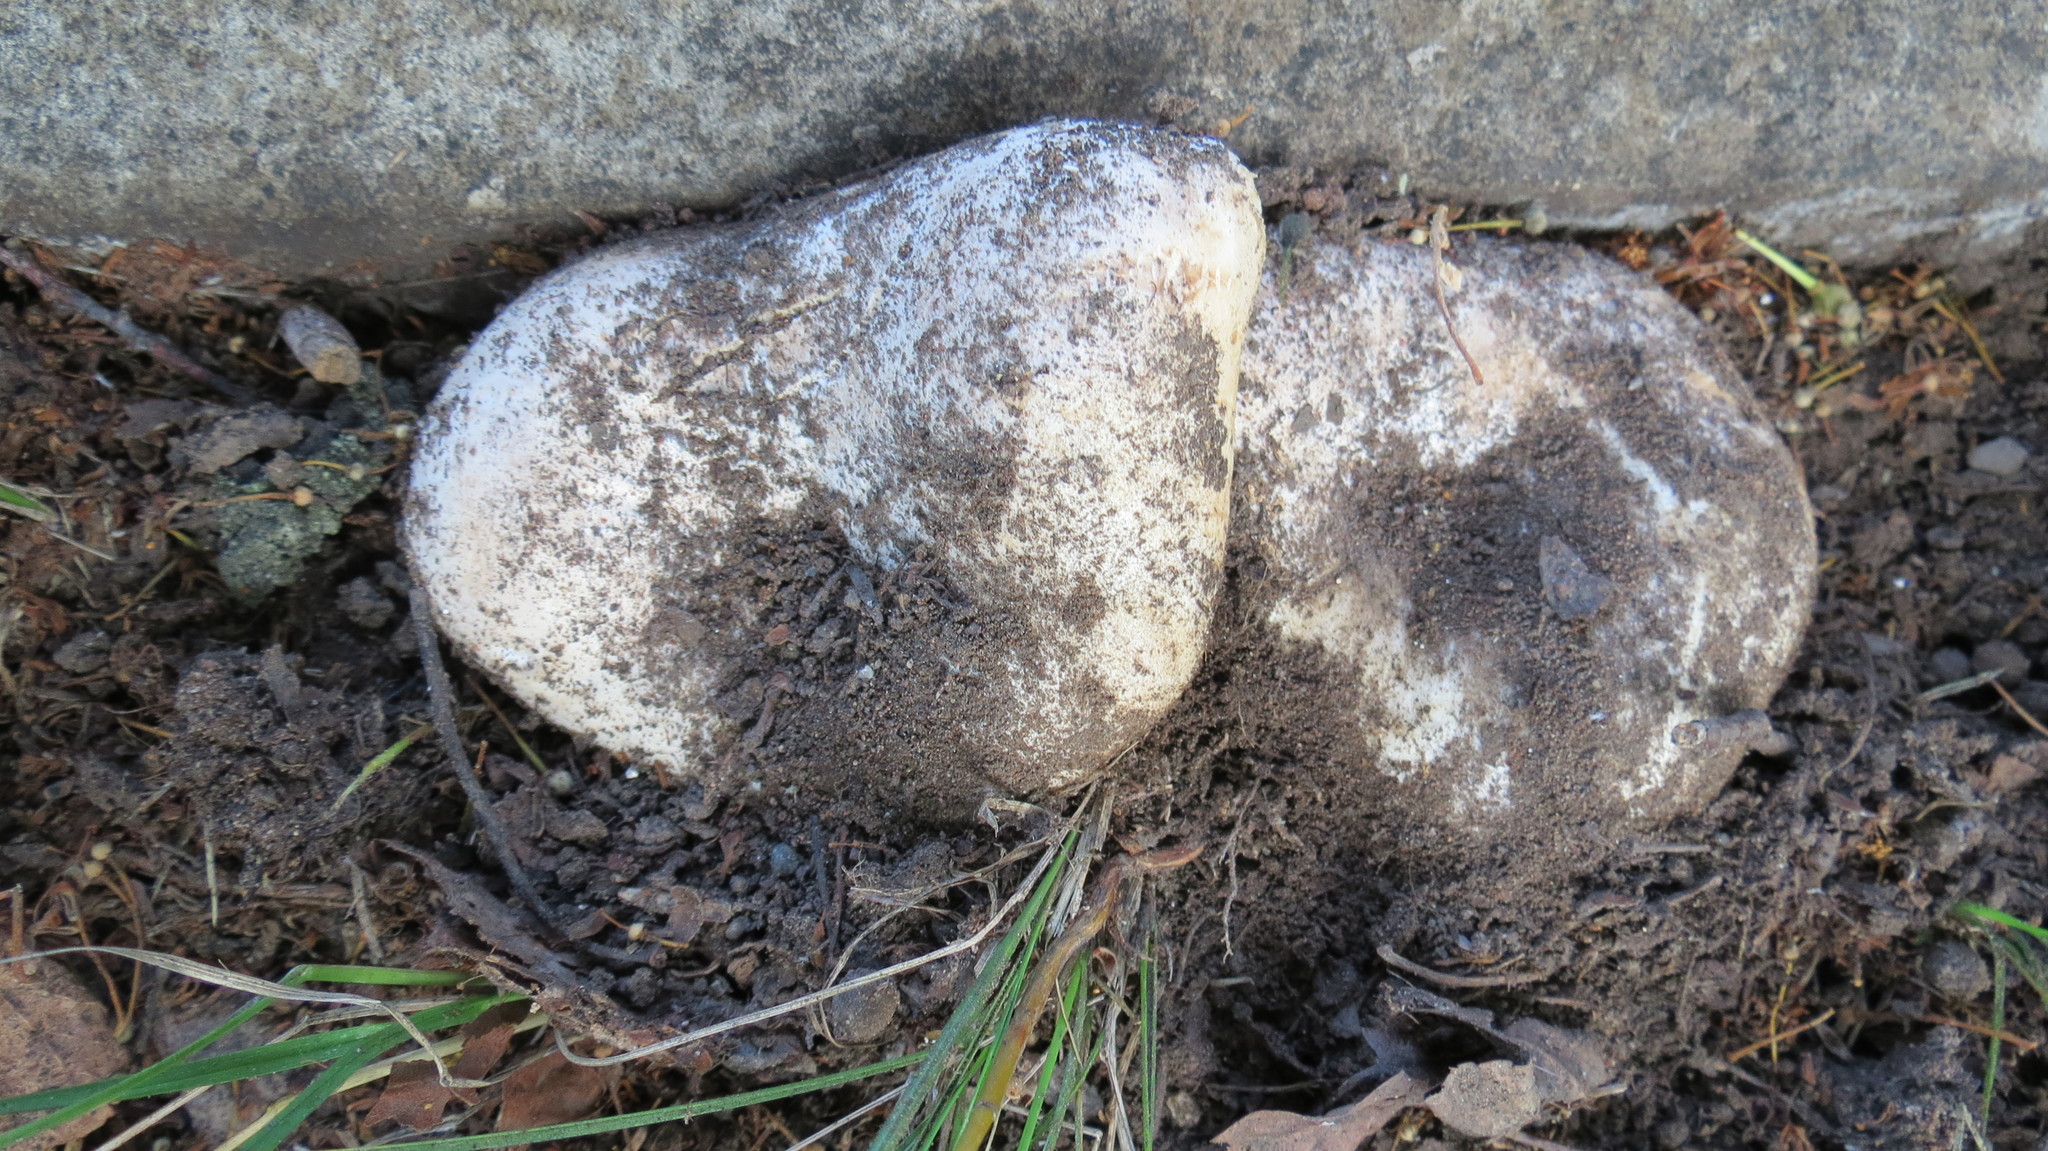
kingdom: Fungi
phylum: Basidiomycota
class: Agaricomycetes
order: Russulales
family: Russulaceae
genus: Russula
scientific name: Russula delica
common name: Milk white brittlegill
